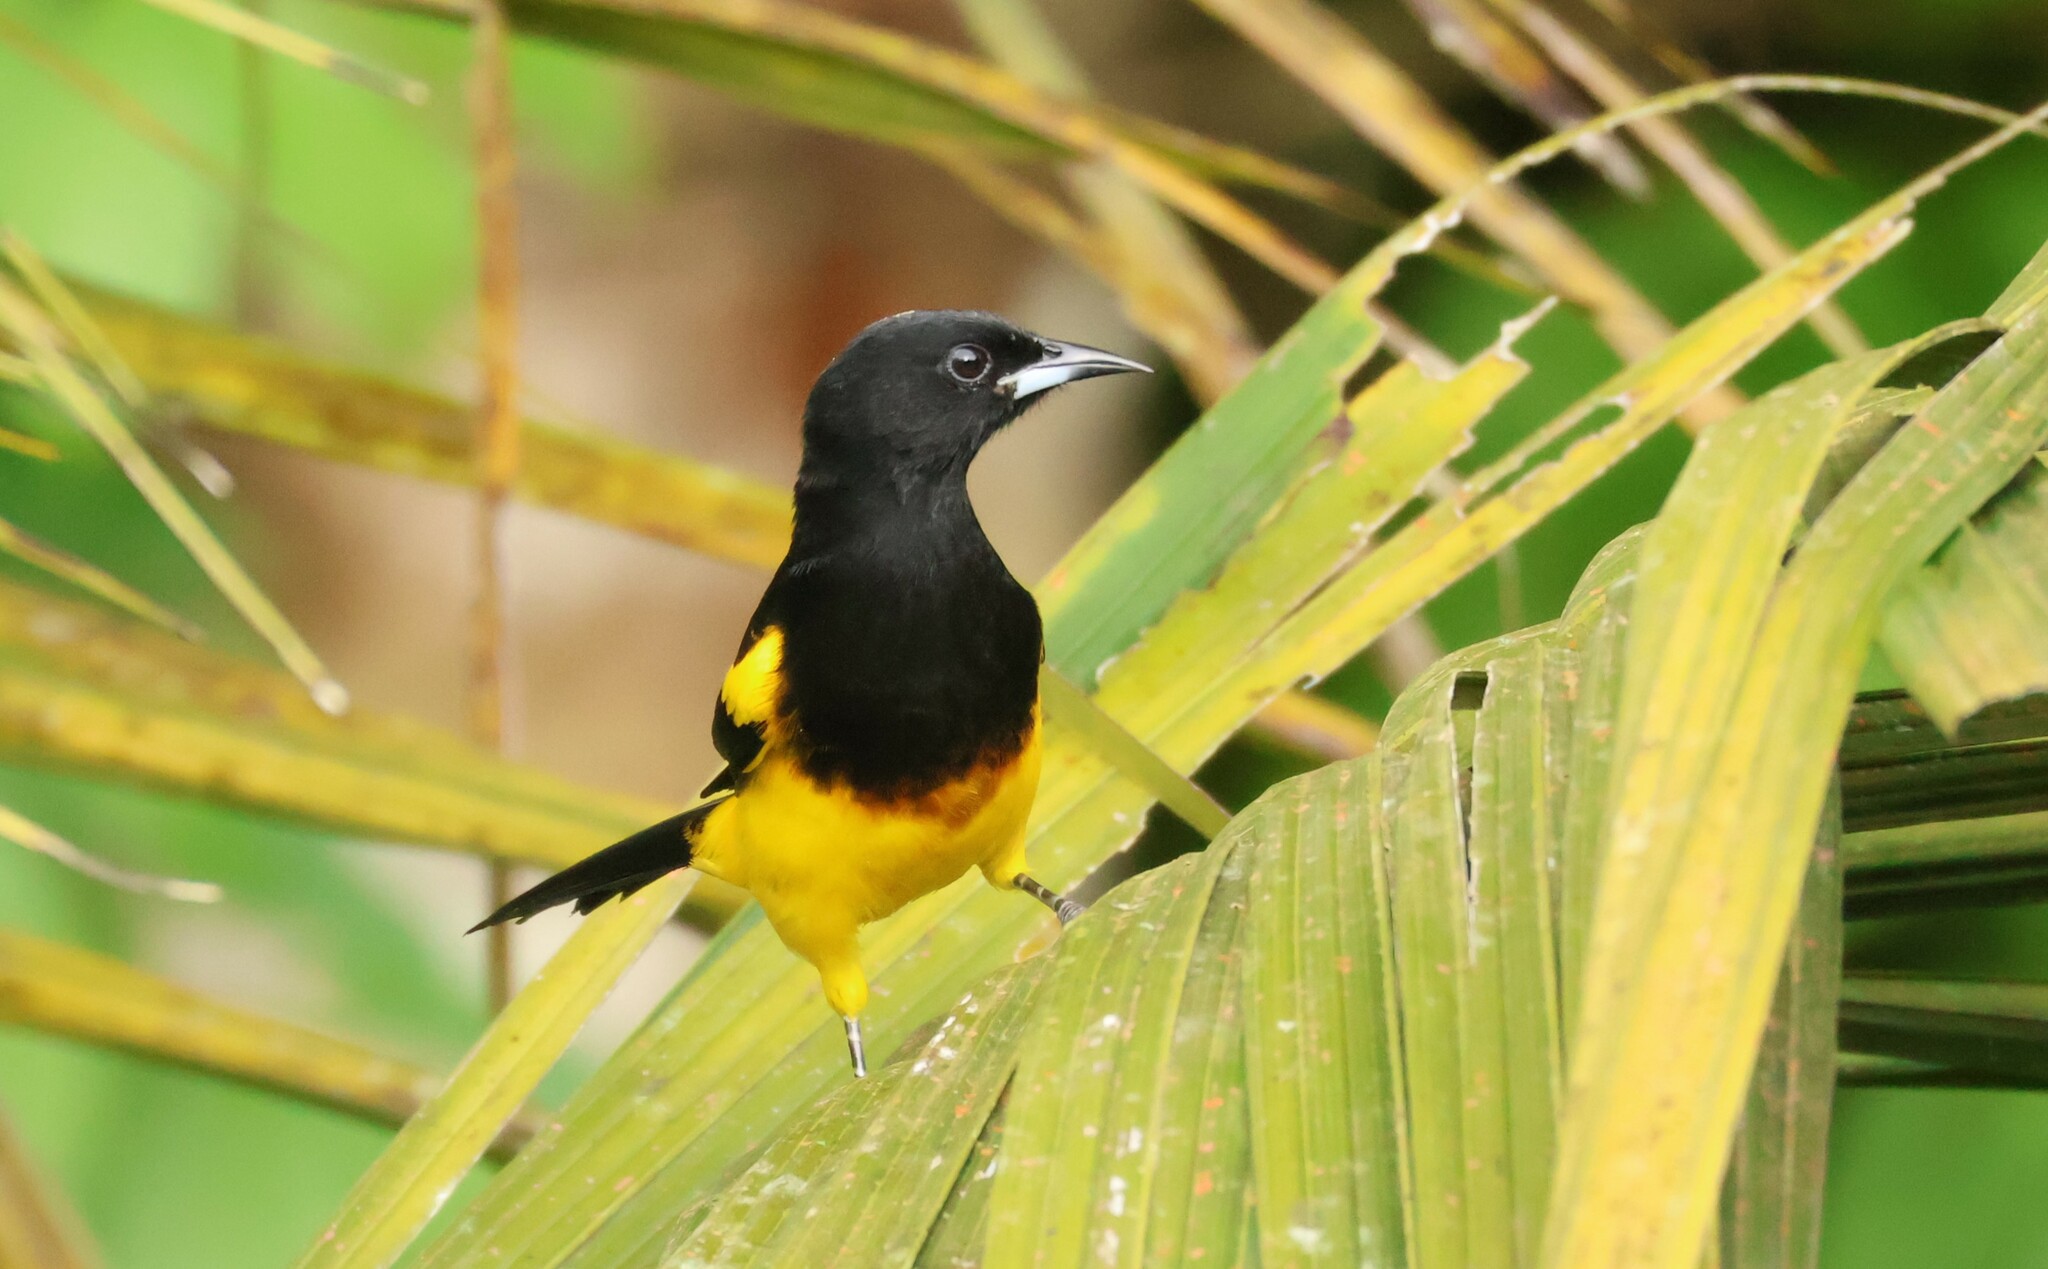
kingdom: Animalia
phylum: Chordata
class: Aves
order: Passeriformes
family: Icteridae
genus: Icterus
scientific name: Icterus prosthemelas
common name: Black-cowled oriole
